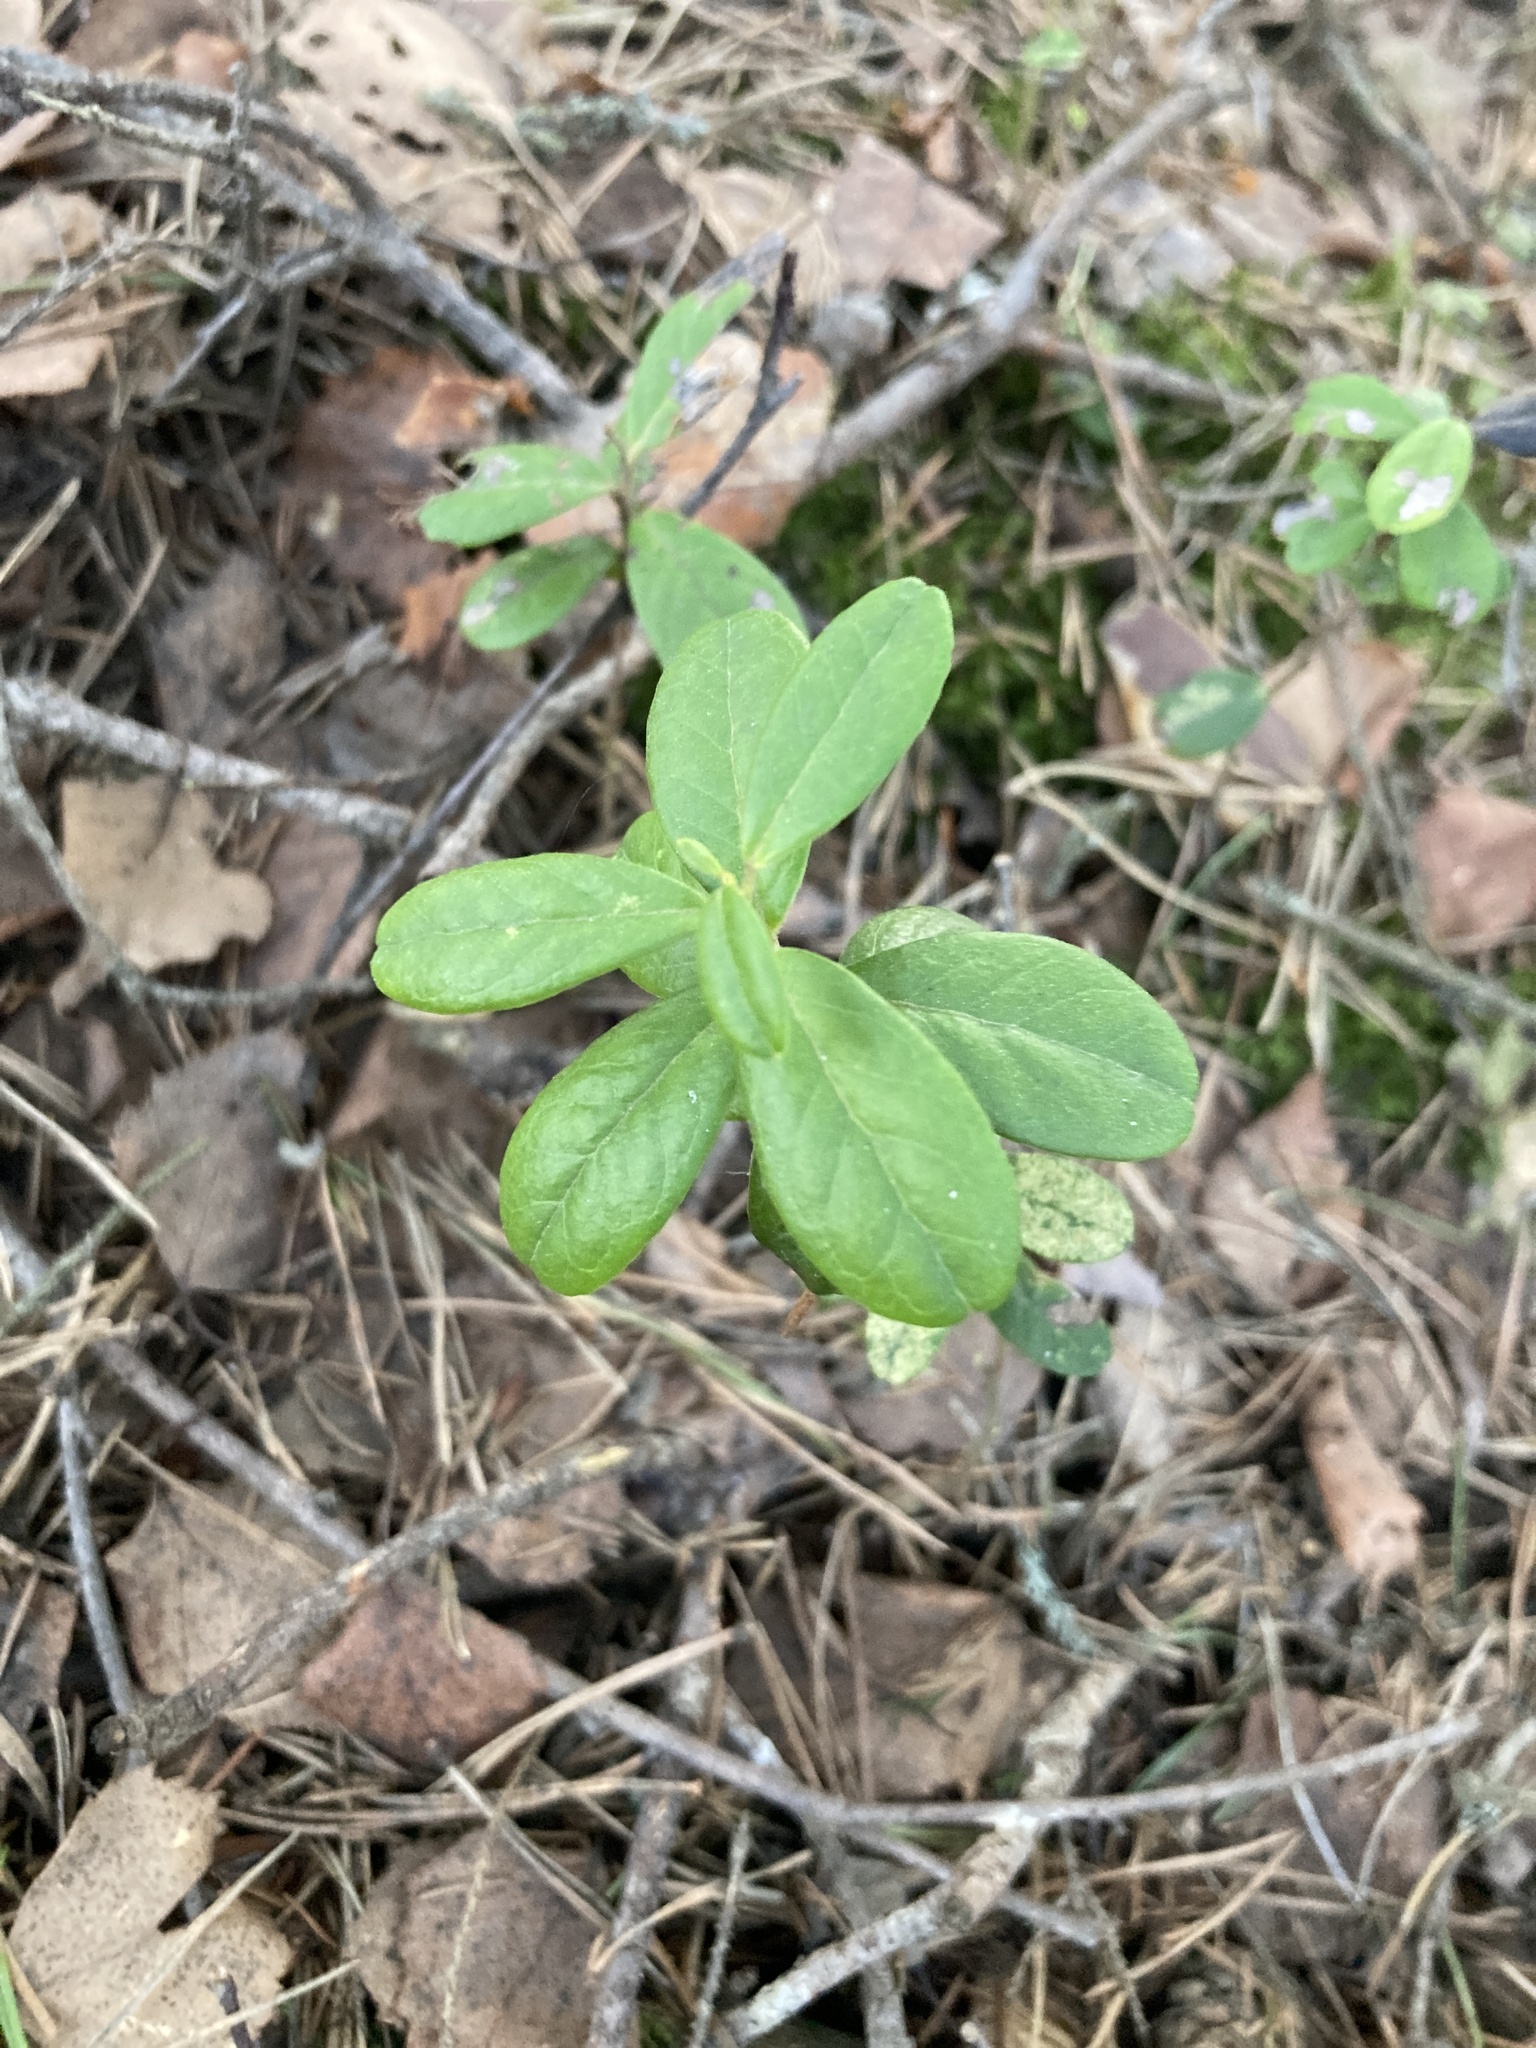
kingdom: Plantae
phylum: Tracheophyta
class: Magnoliopsida
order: Ericales
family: Ericaceae
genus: Vaccinium
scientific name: Vaccinium vitis-idaea
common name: Cowberry
